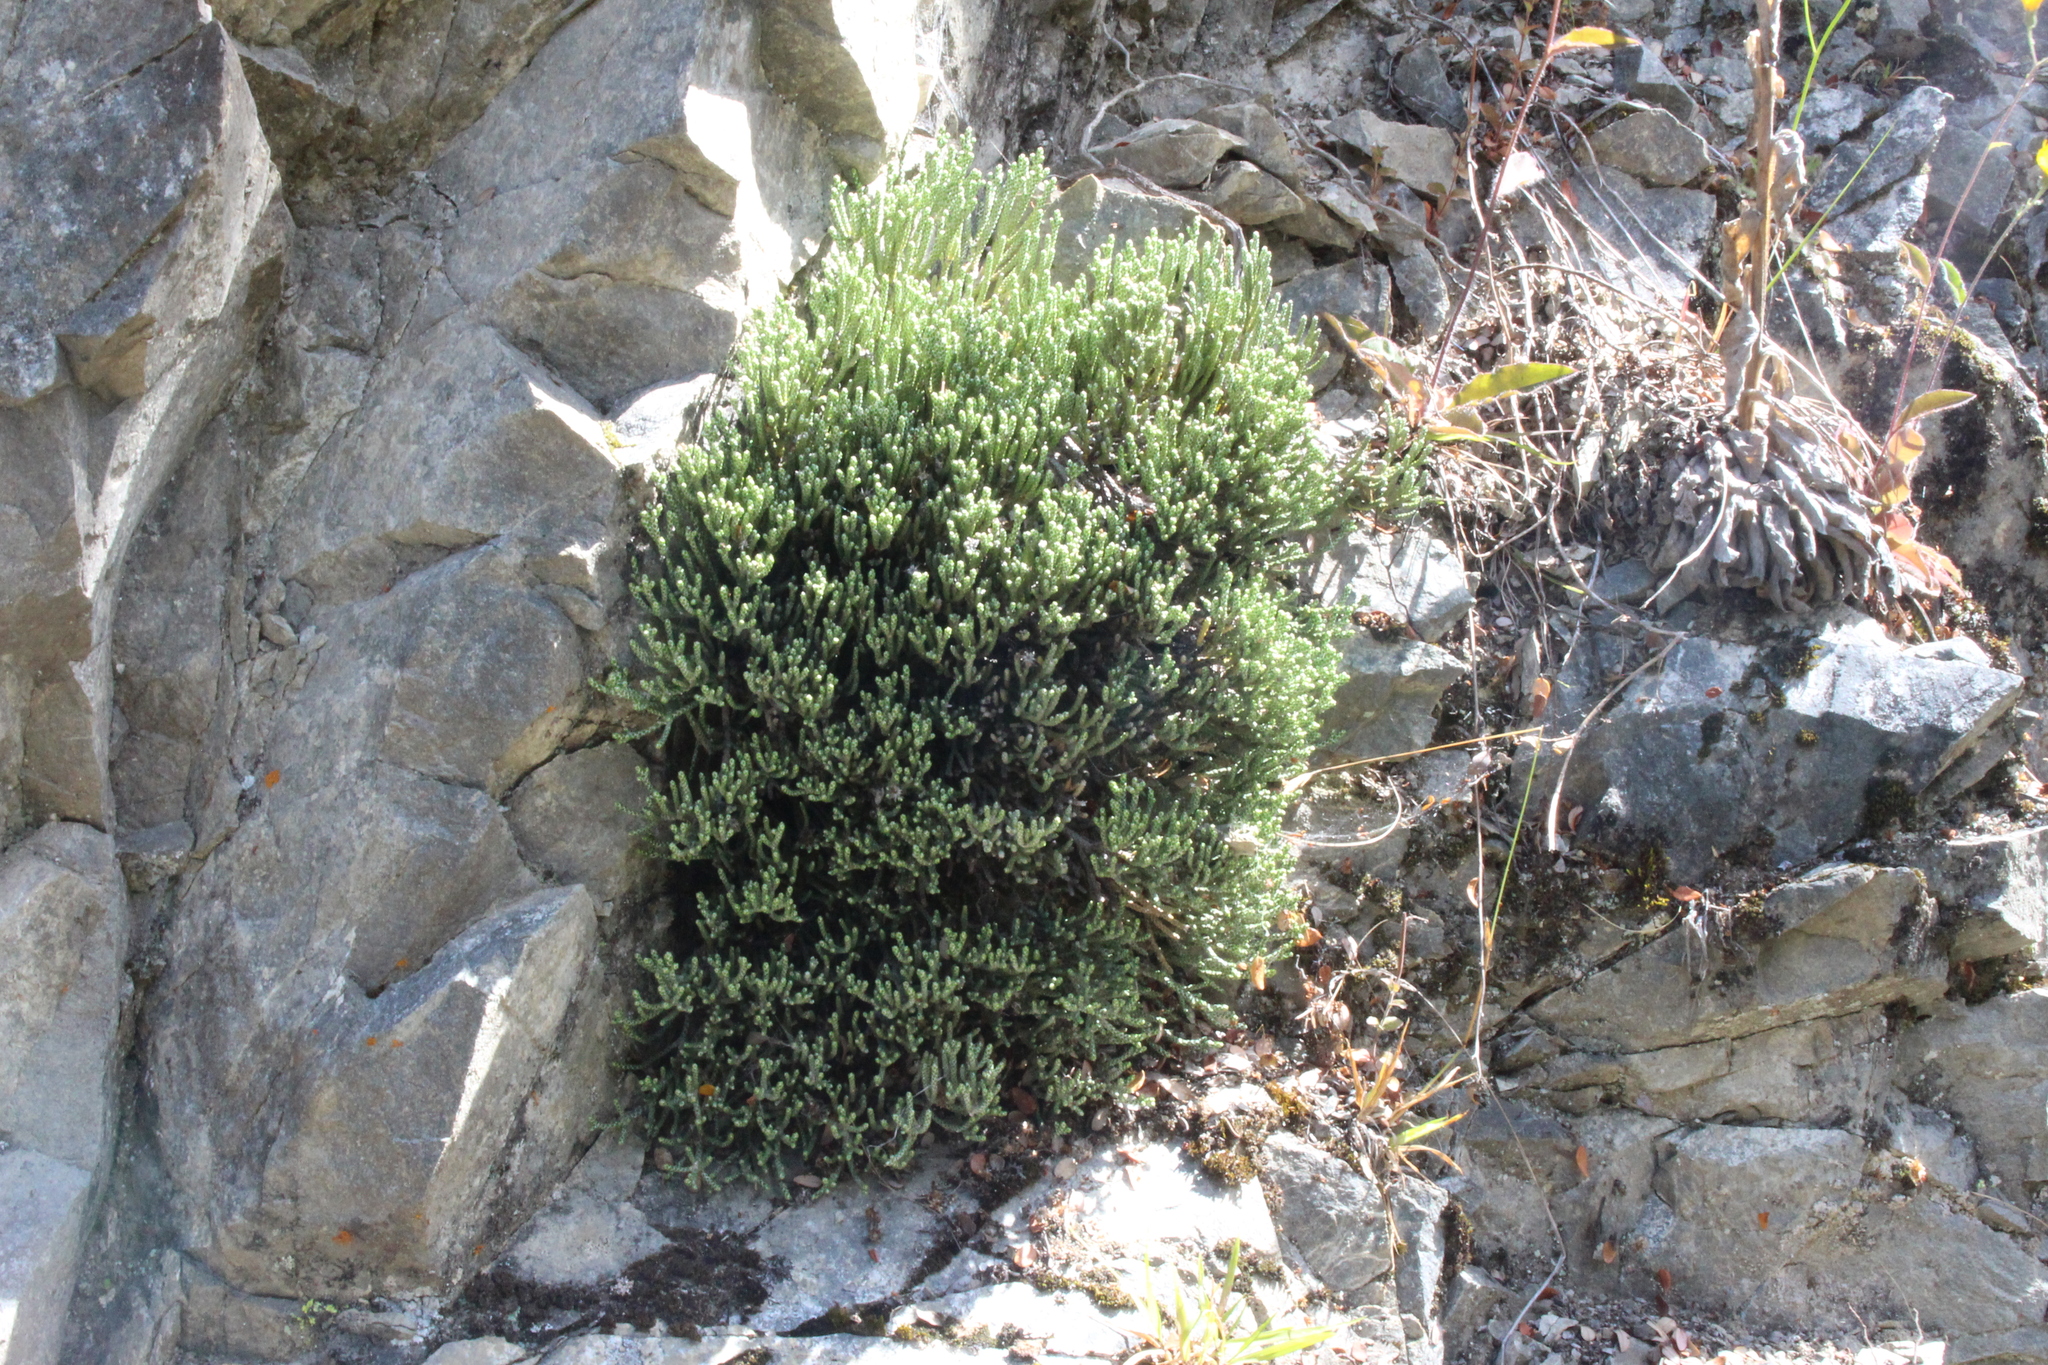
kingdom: Plantae
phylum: Tracheophyta
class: Magnoliopsida
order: Asterales
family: Asteraceae
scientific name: Asteraceae
